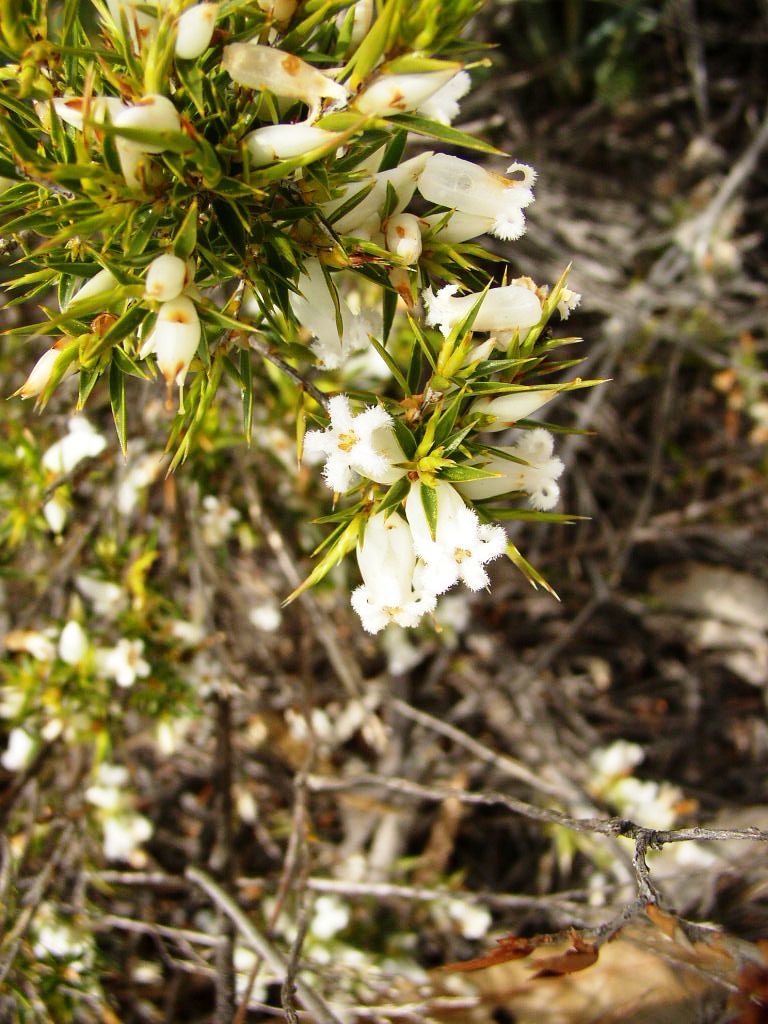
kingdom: Plantae
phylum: Tracheophyta
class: Magnoliopsida
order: Ericales
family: Ericaceae
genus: Styphelia
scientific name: Styphelia xerophylla
